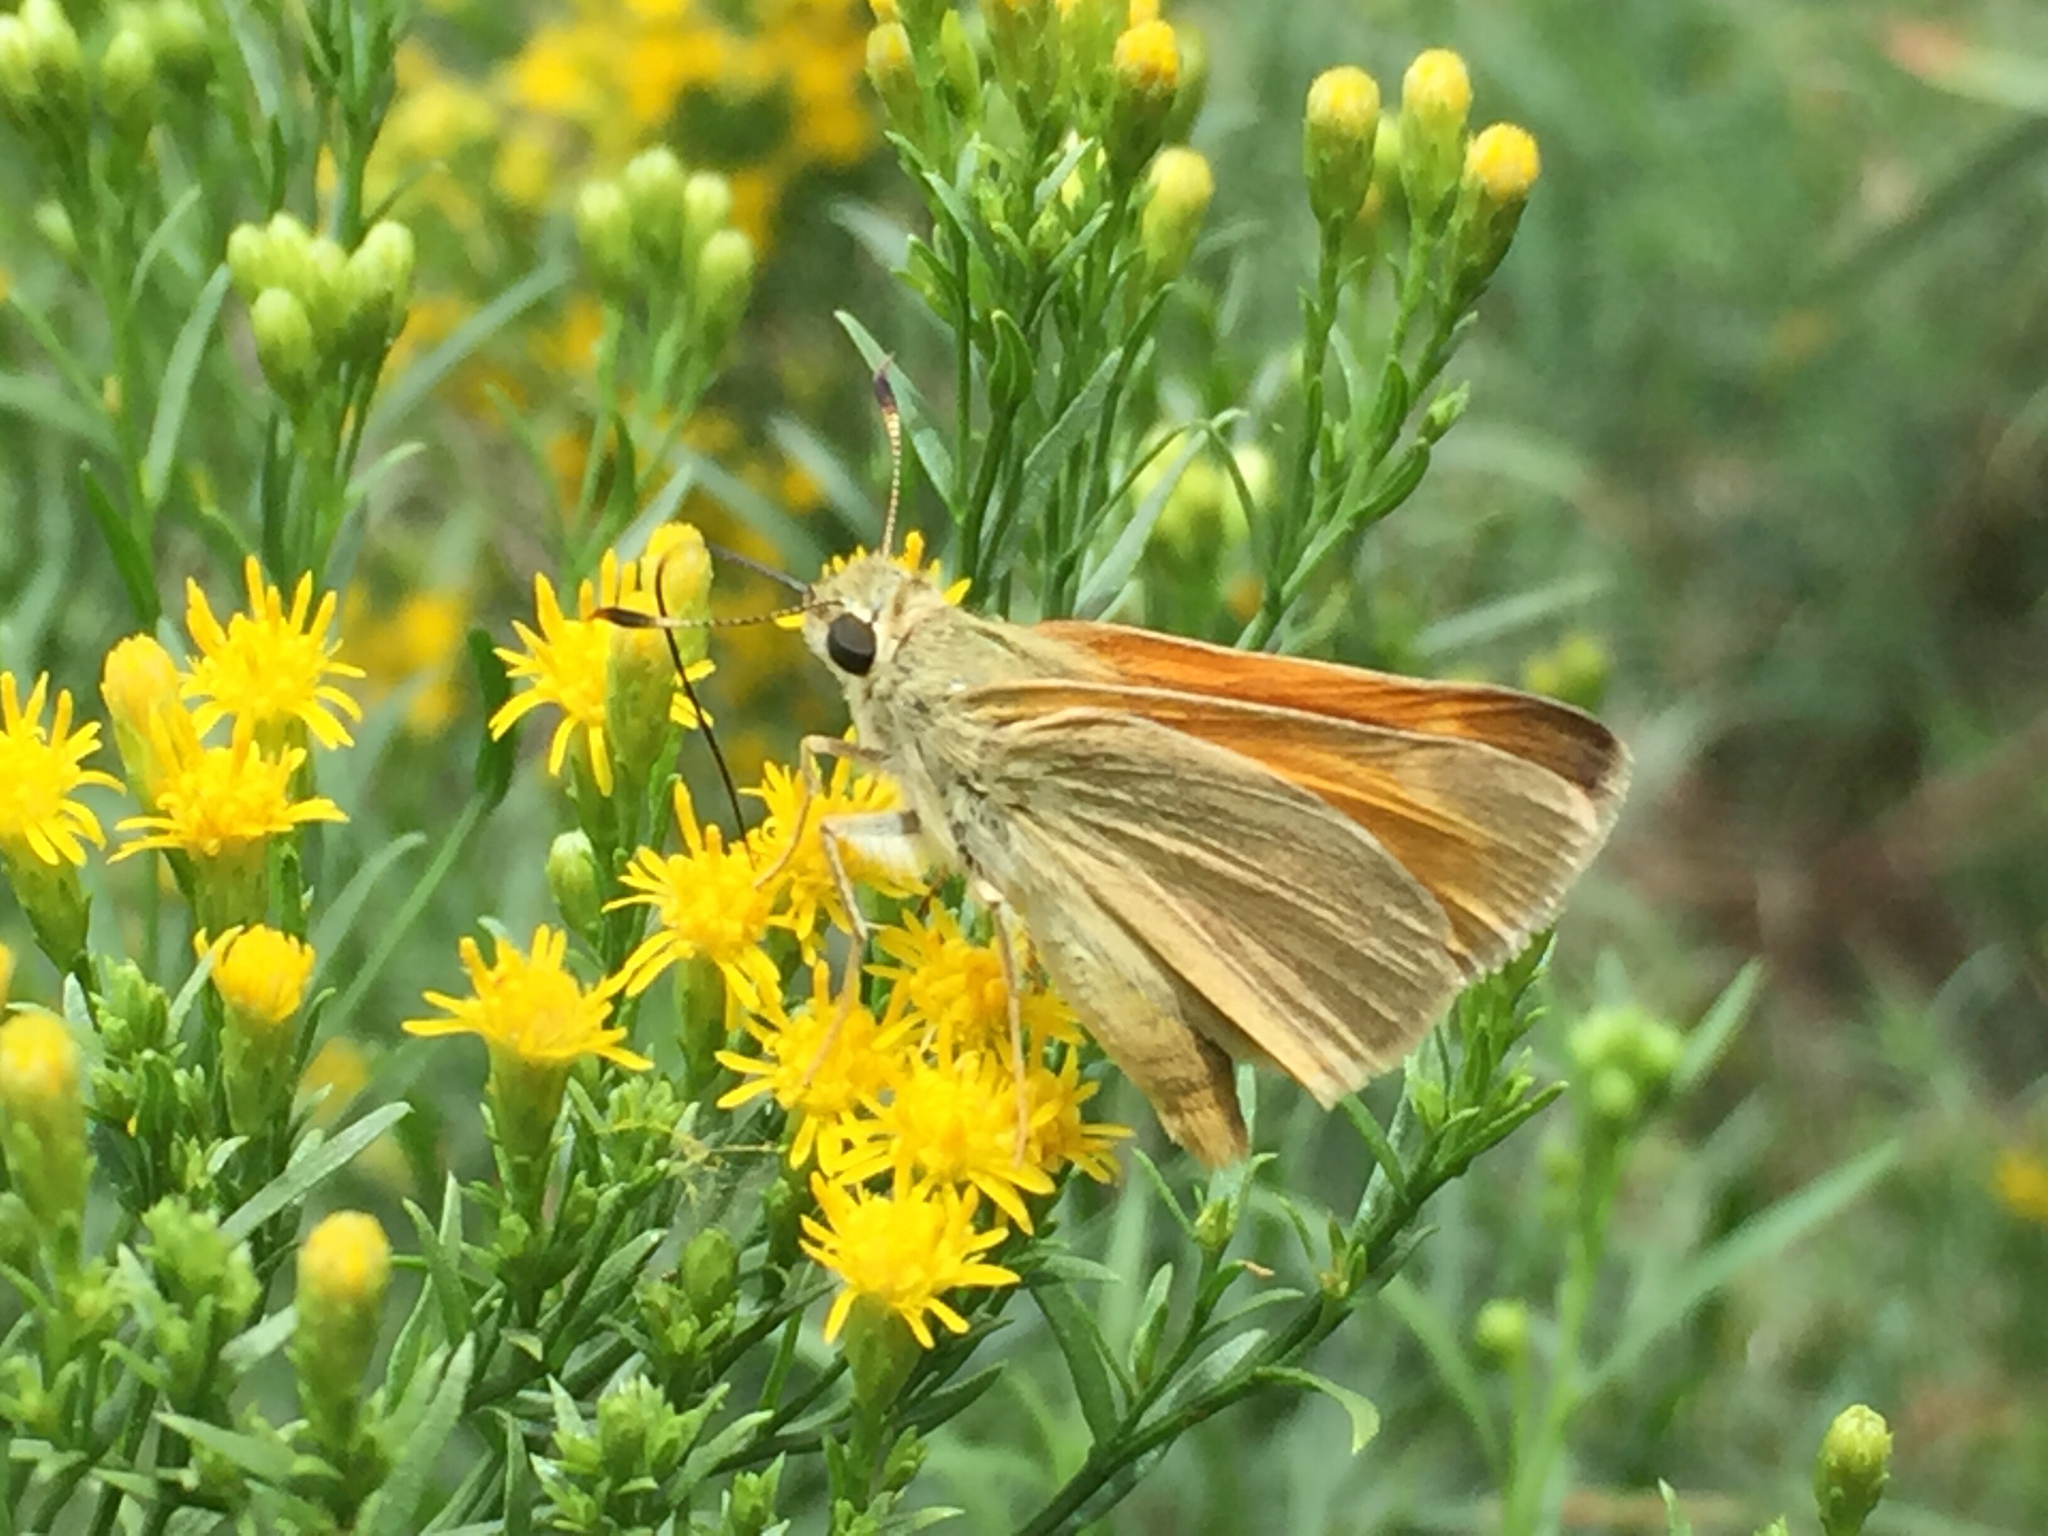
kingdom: Animalia
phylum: Arthropoda
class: Insecta
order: Lepidoptera
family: Hesperiidae
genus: Ochlodes
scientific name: Ochlodes sylvanoides
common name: Woodland skipper
